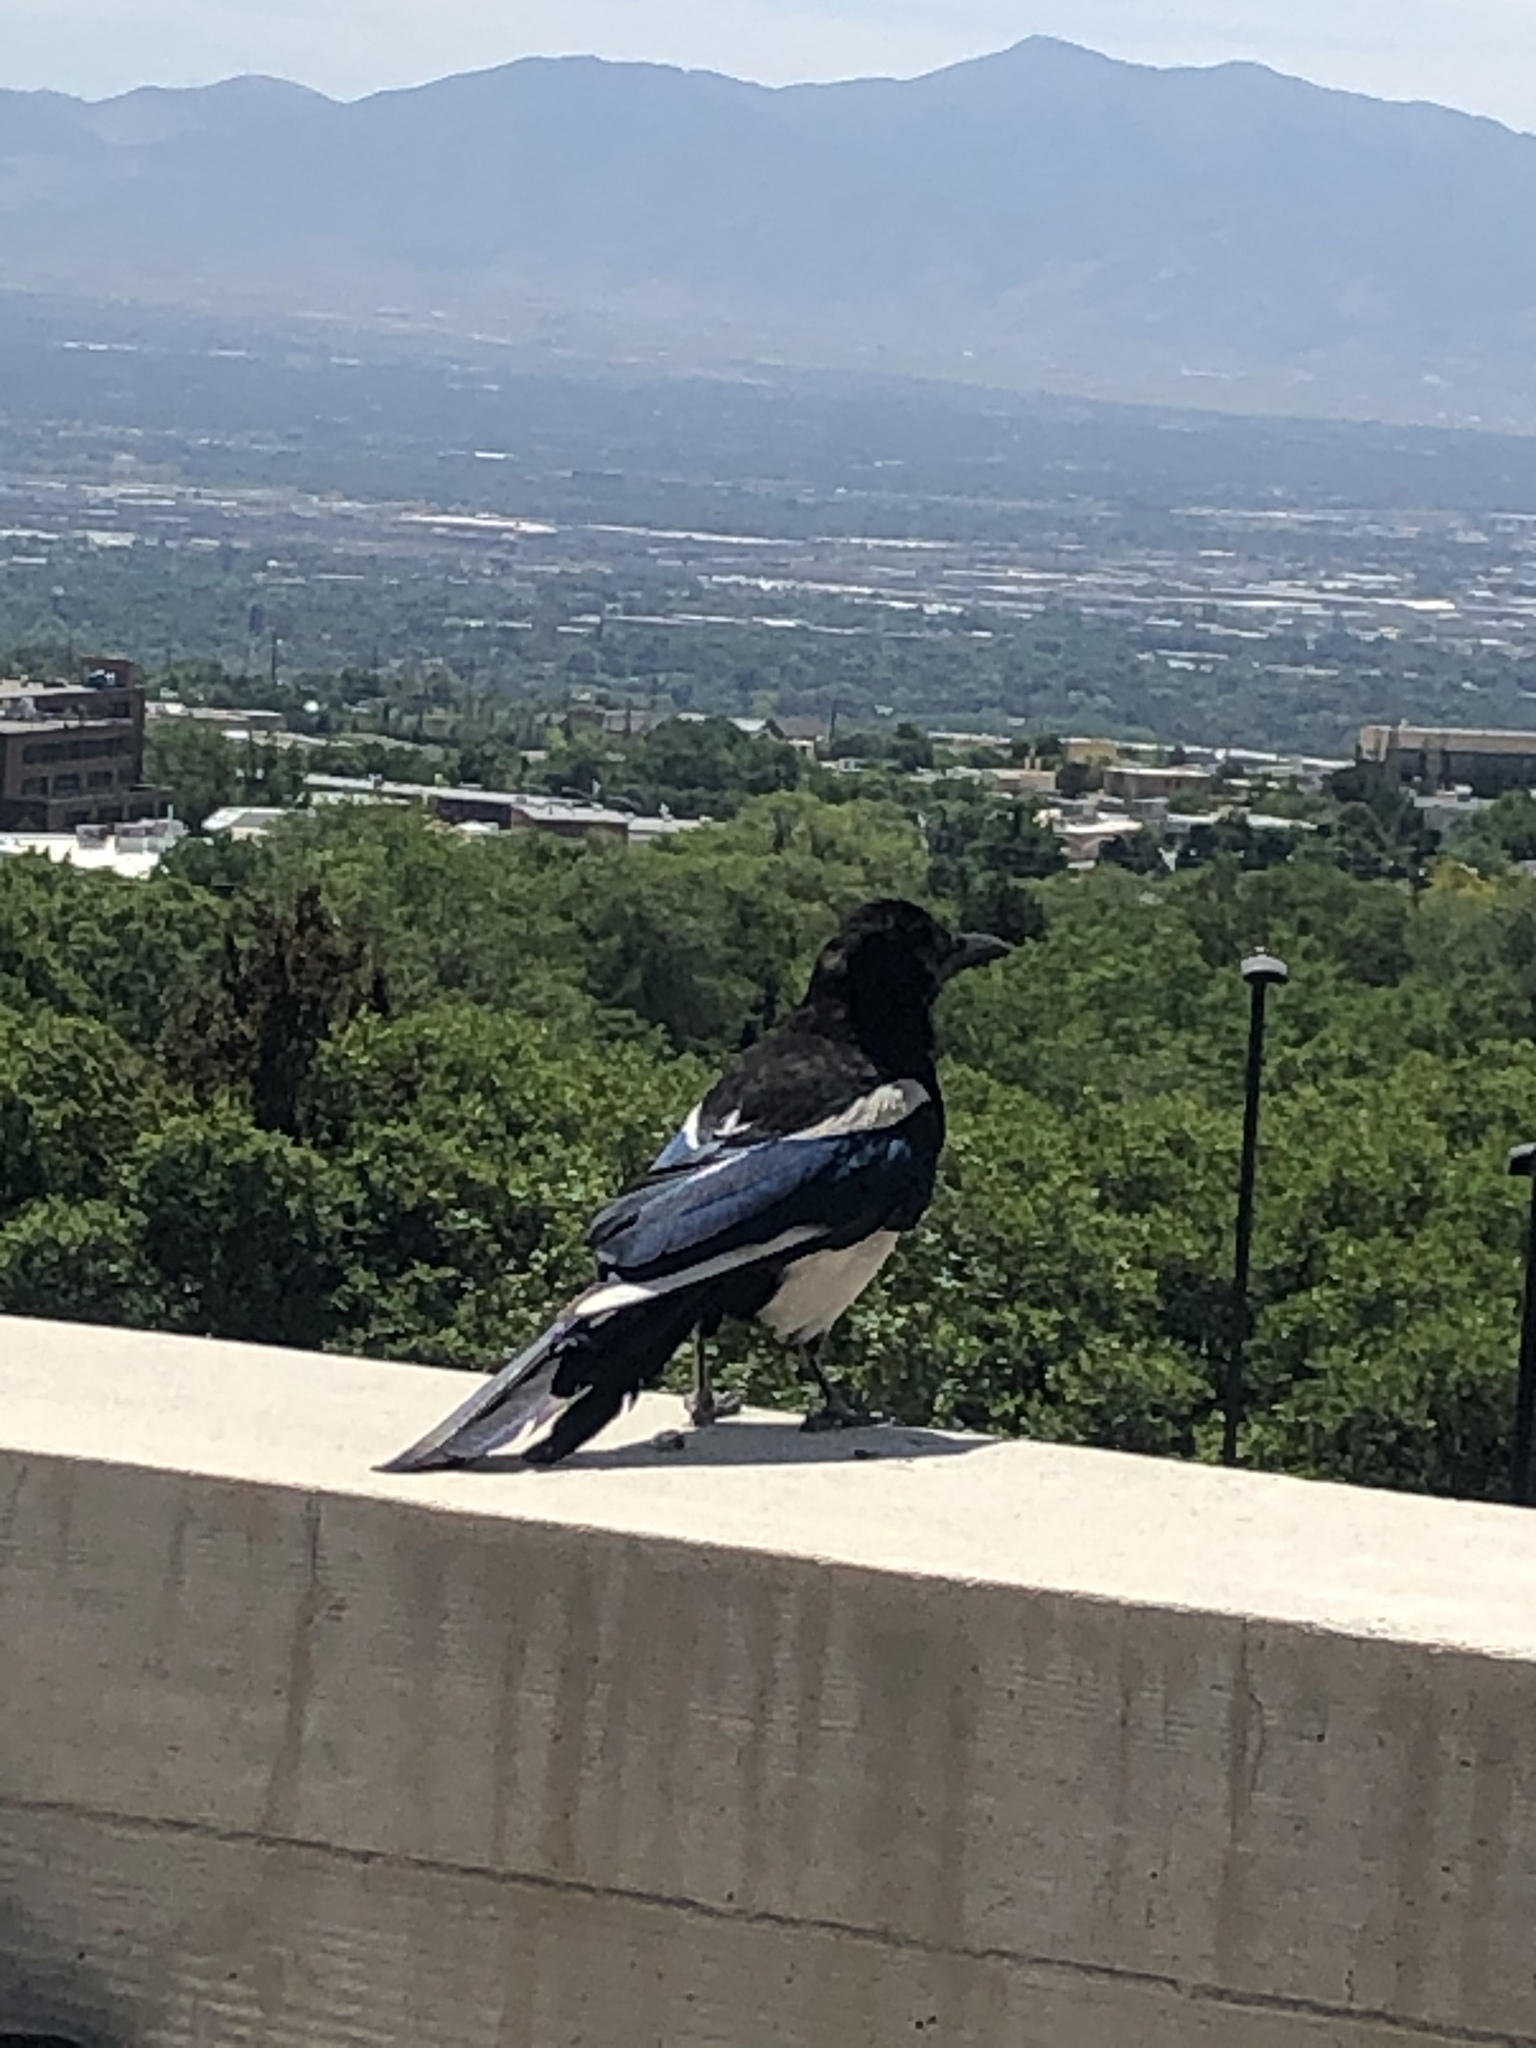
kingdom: Animalia
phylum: Chordata
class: Aves
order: Passeriformes
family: Corvidae
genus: Pica
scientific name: Pica hudsonia
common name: Black-billed magpie
